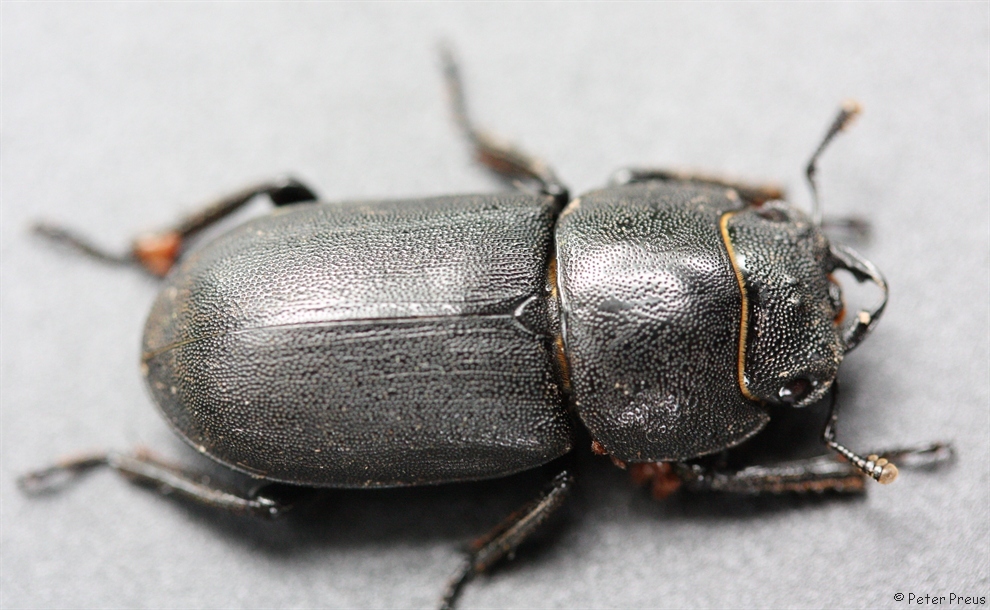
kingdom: Animalia
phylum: Arthropoda
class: Insecta
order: Coleoptera
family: Lucanidae
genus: Dorcus
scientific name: Dorcus parallelipipedus
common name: Lesser stag beetle
